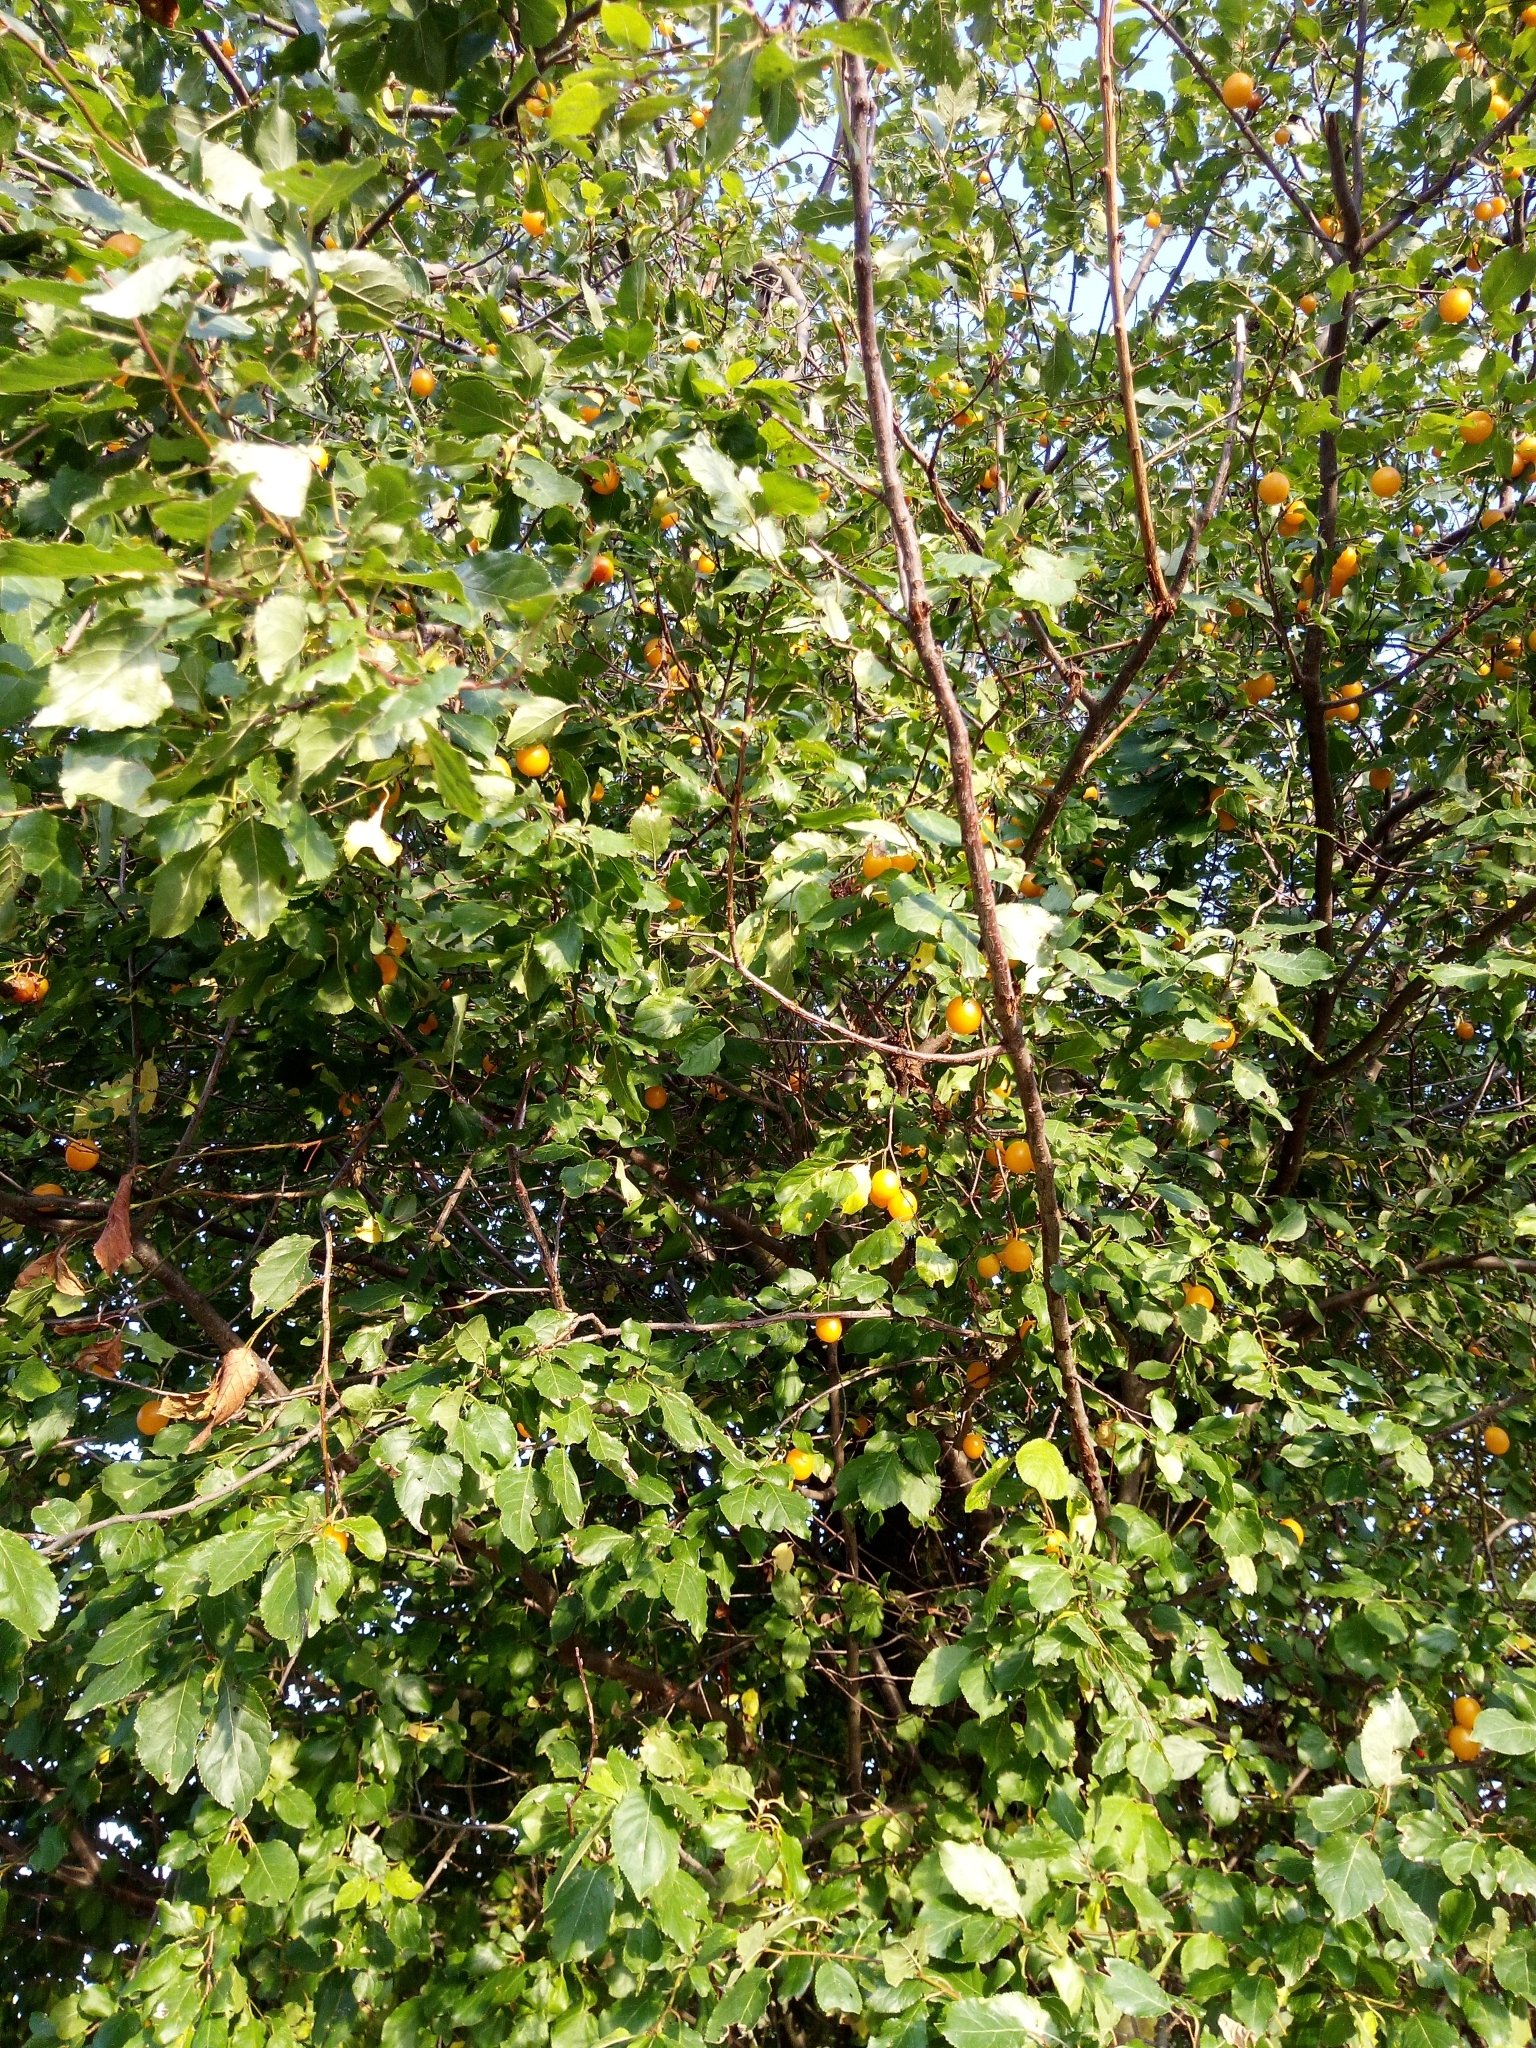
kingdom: Plantae
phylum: Tracheophyta
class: Magnoliopsida
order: Rosales
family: Rosaceae
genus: Prunus
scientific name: Prunus cerasifera
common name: Cherry plum
